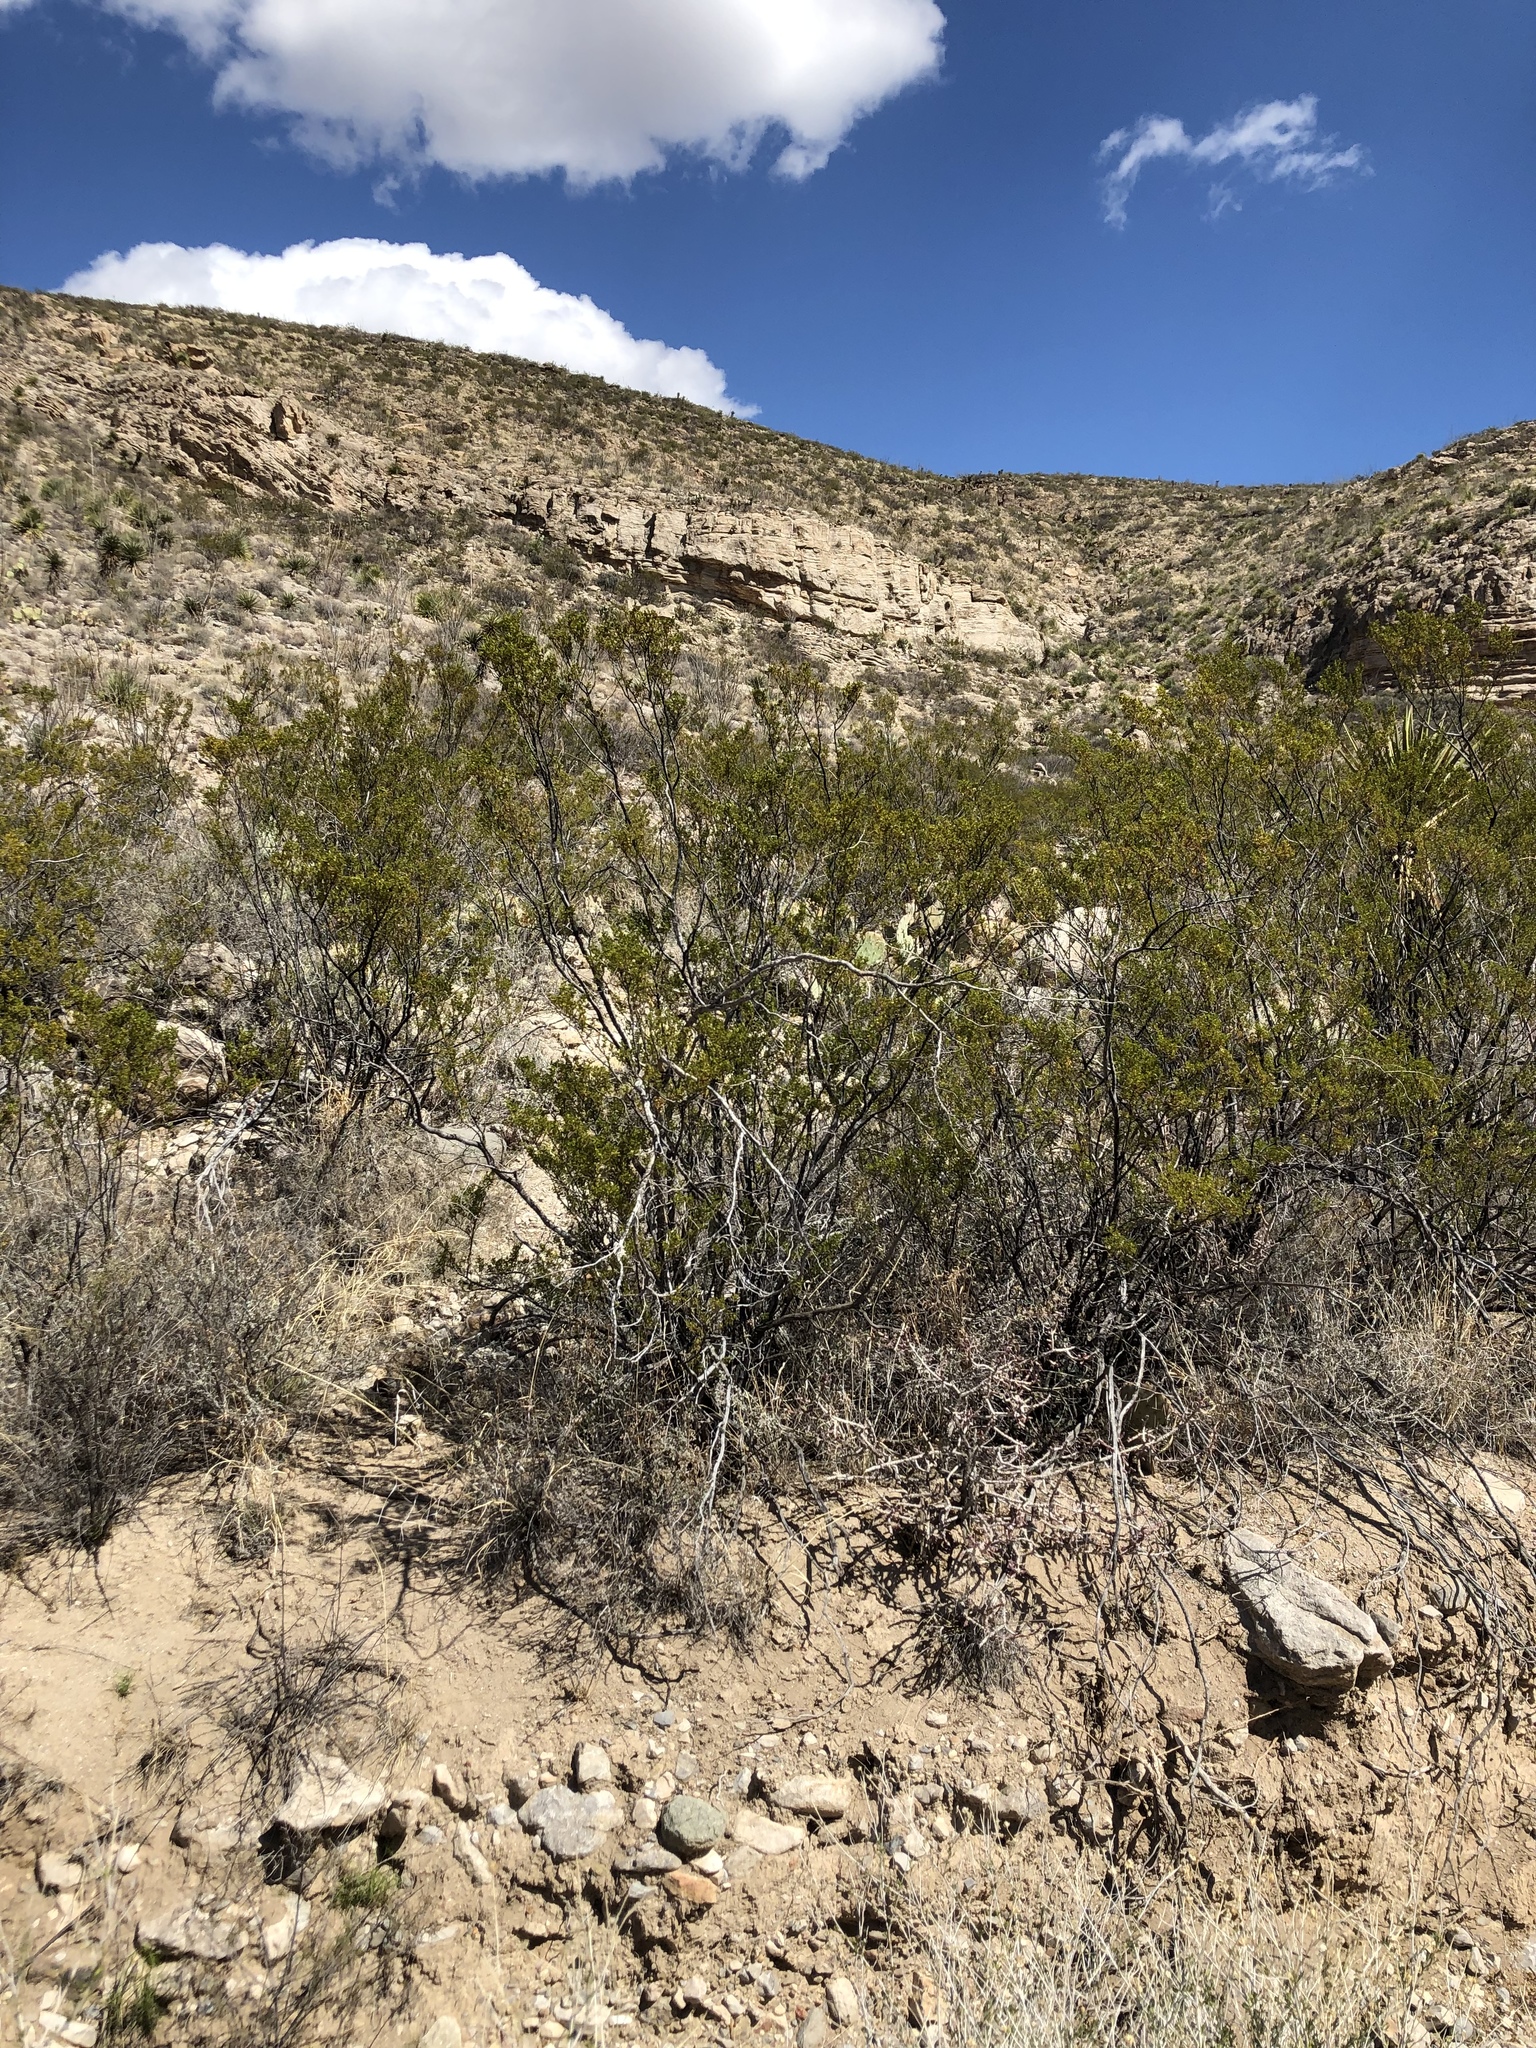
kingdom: Plantae
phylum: Tracheophyta
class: Magnoliopsida
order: Zygophyllales
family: Zygophyllaceae
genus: Larrea
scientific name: Larrea tridentata
